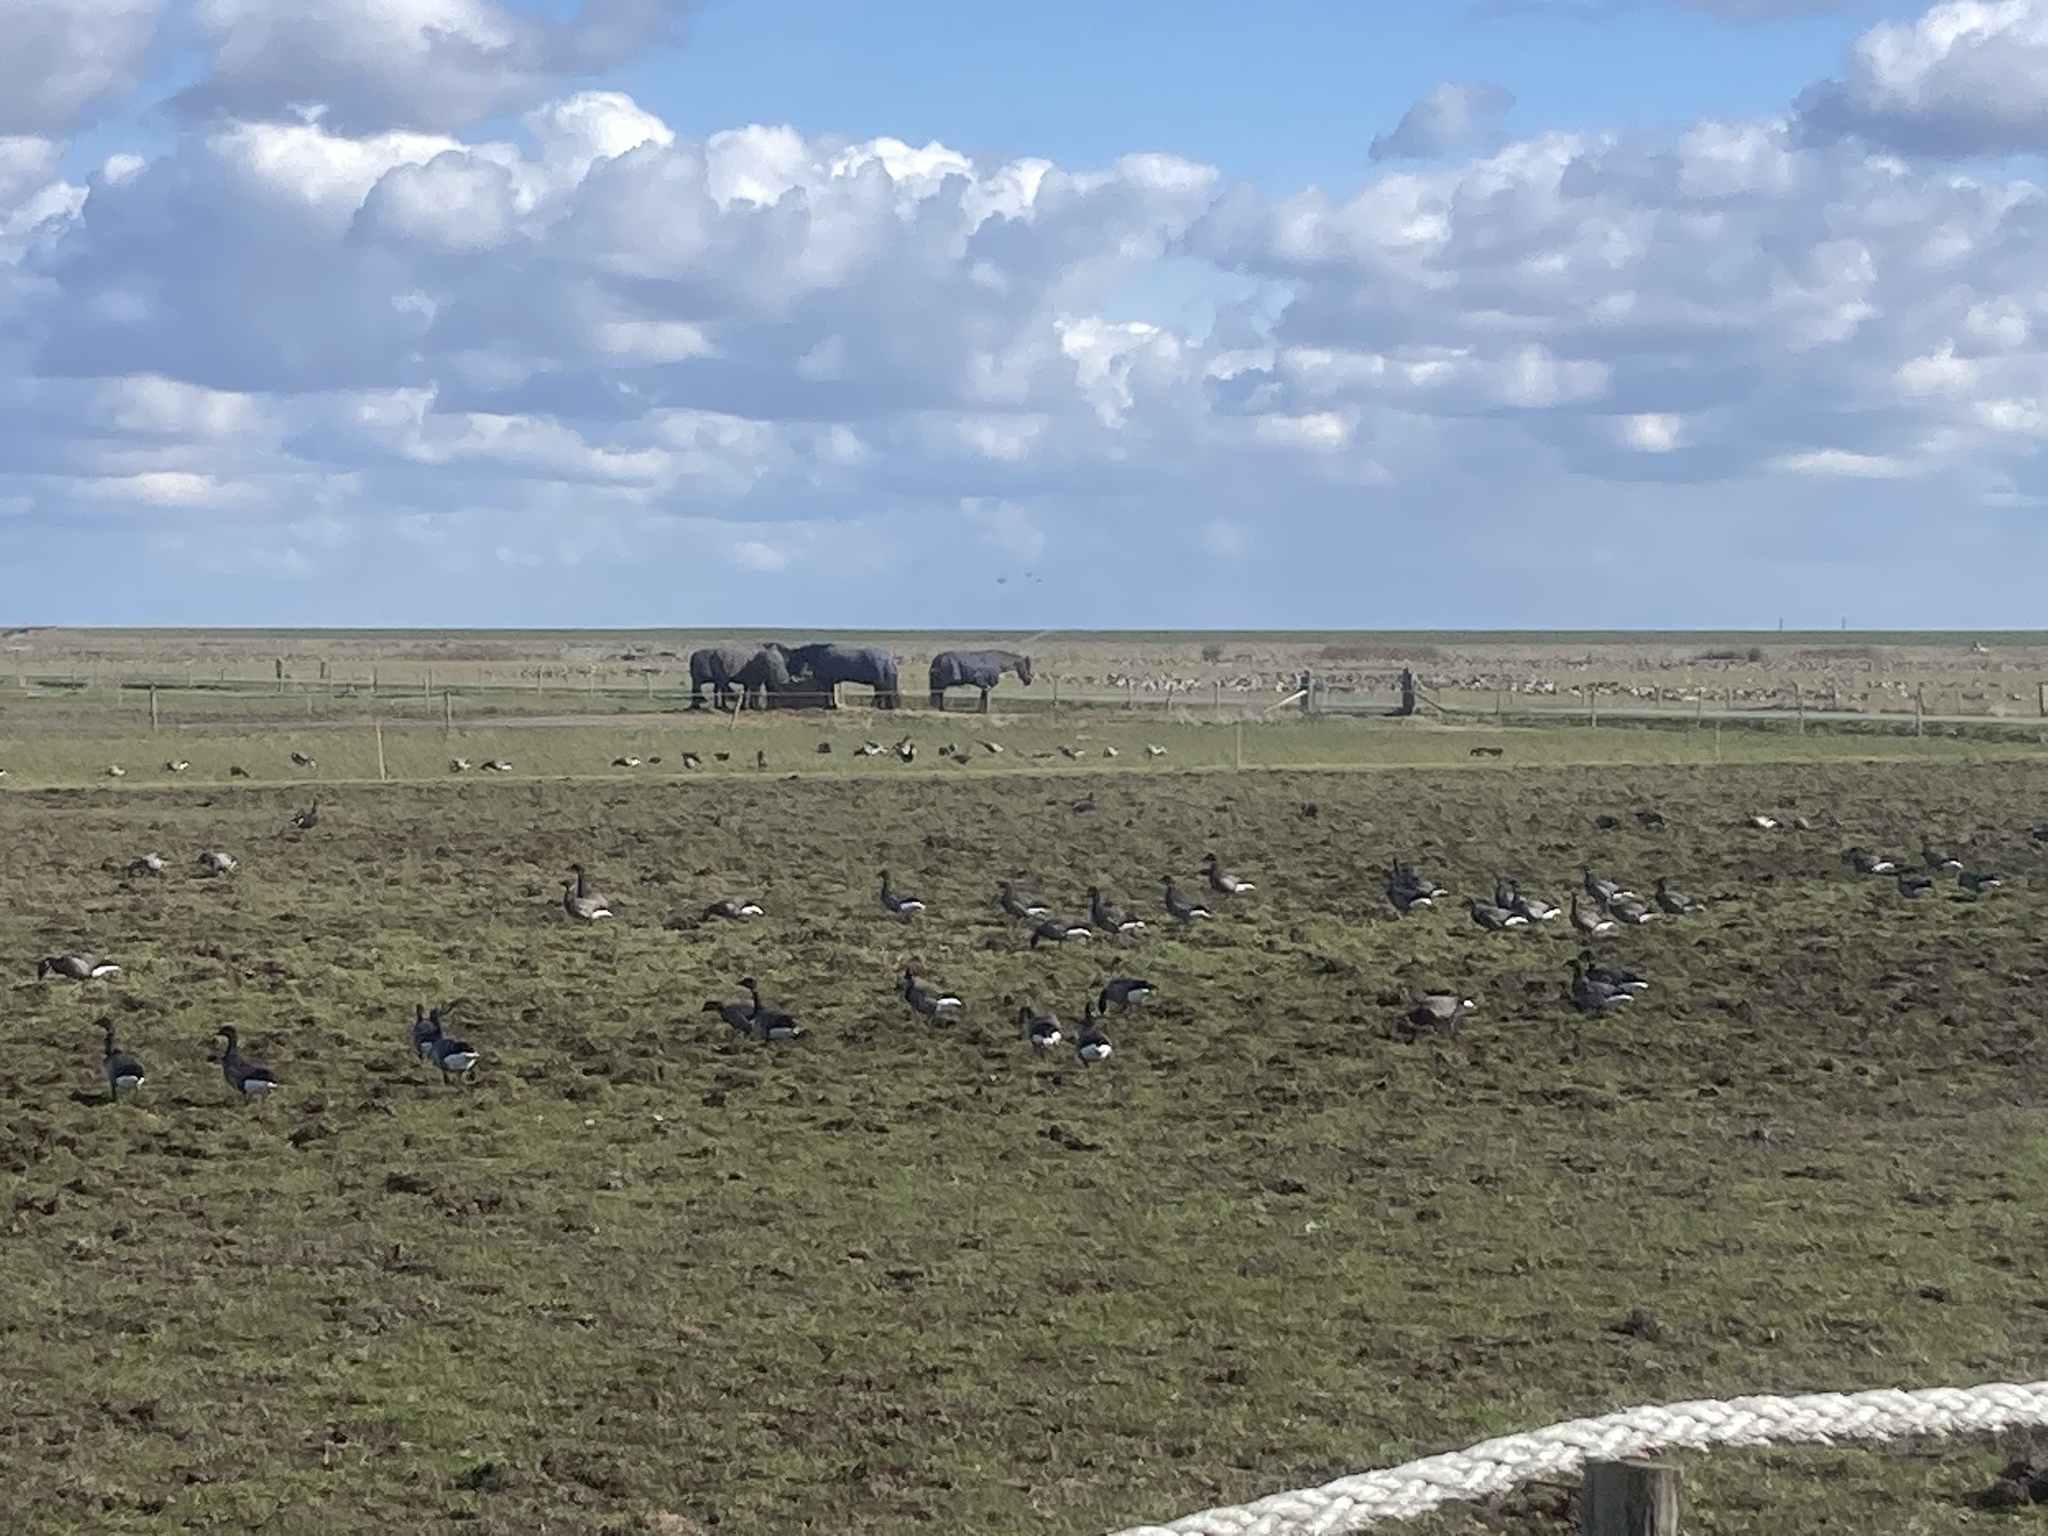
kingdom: Animalia
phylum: Chordata
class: Aves
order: Anseriformes
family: Anatidae
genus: Branta
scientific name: Branta bernicla
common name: Brant goose
